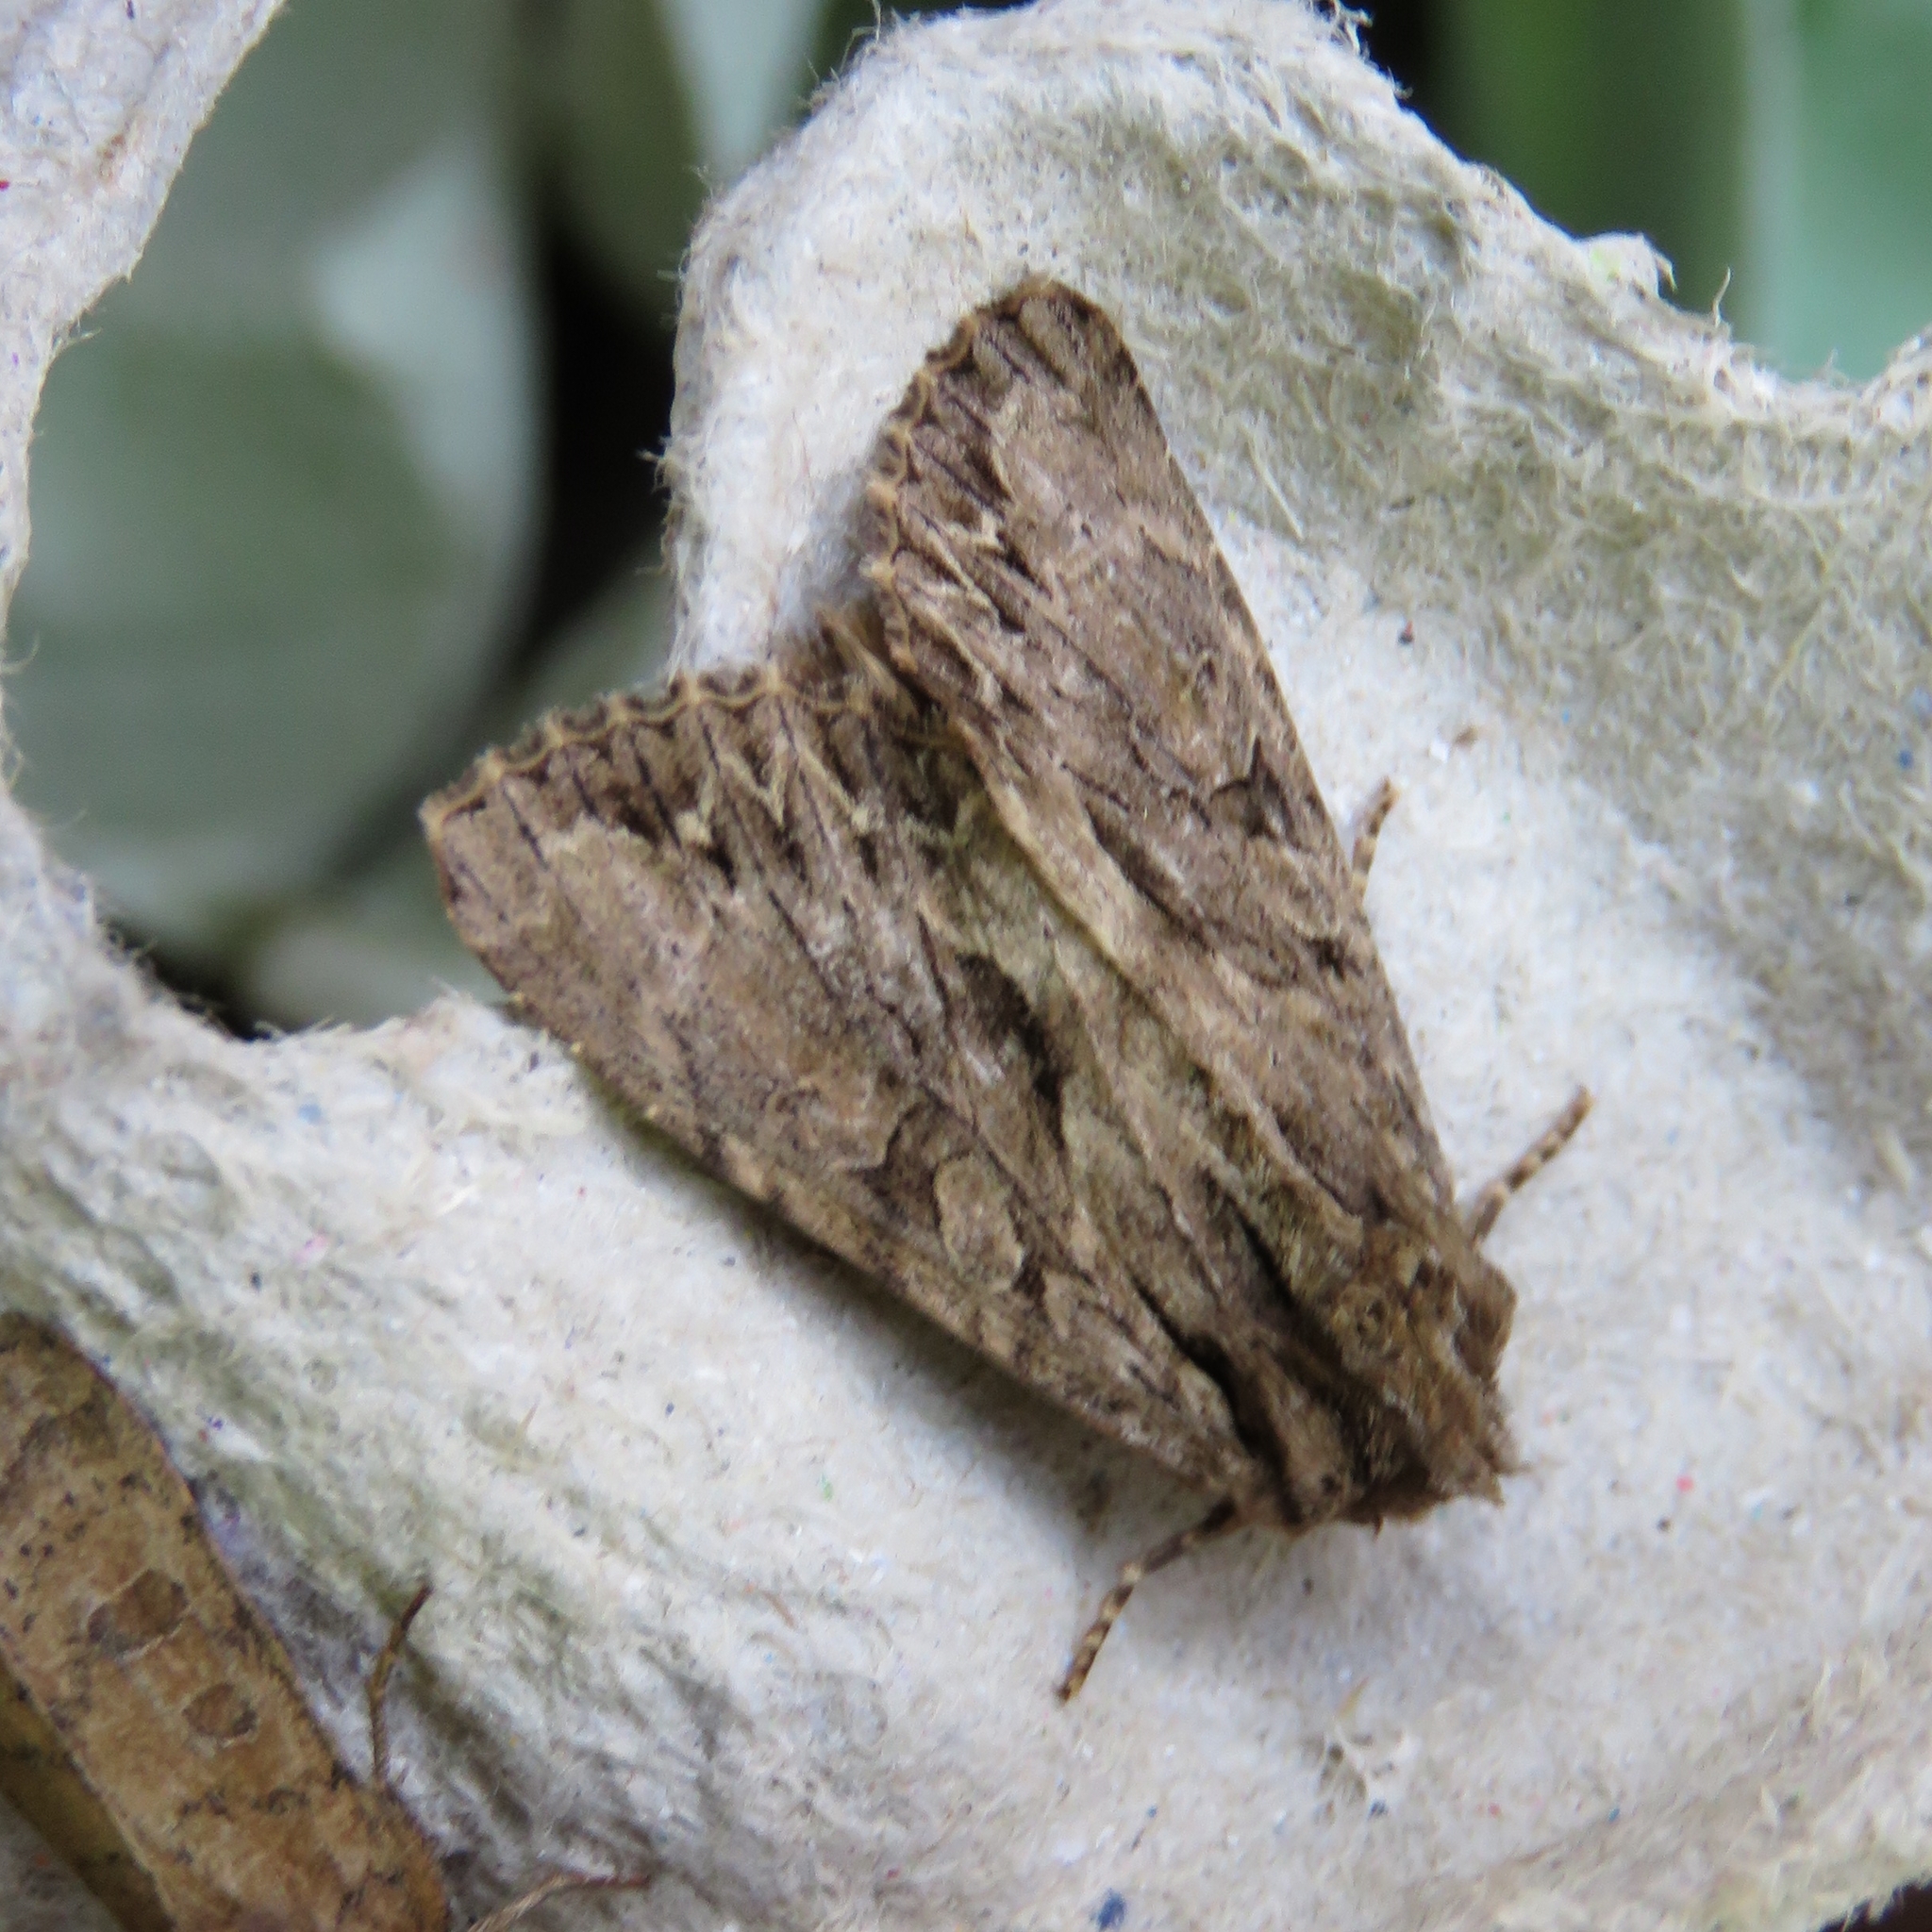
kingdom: Animalia
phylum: Arthropoda
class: Insecta
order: Lepidoptera
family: Noctuidae
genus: Apamea
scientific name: Apamea monoglypha
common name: Dark arches
